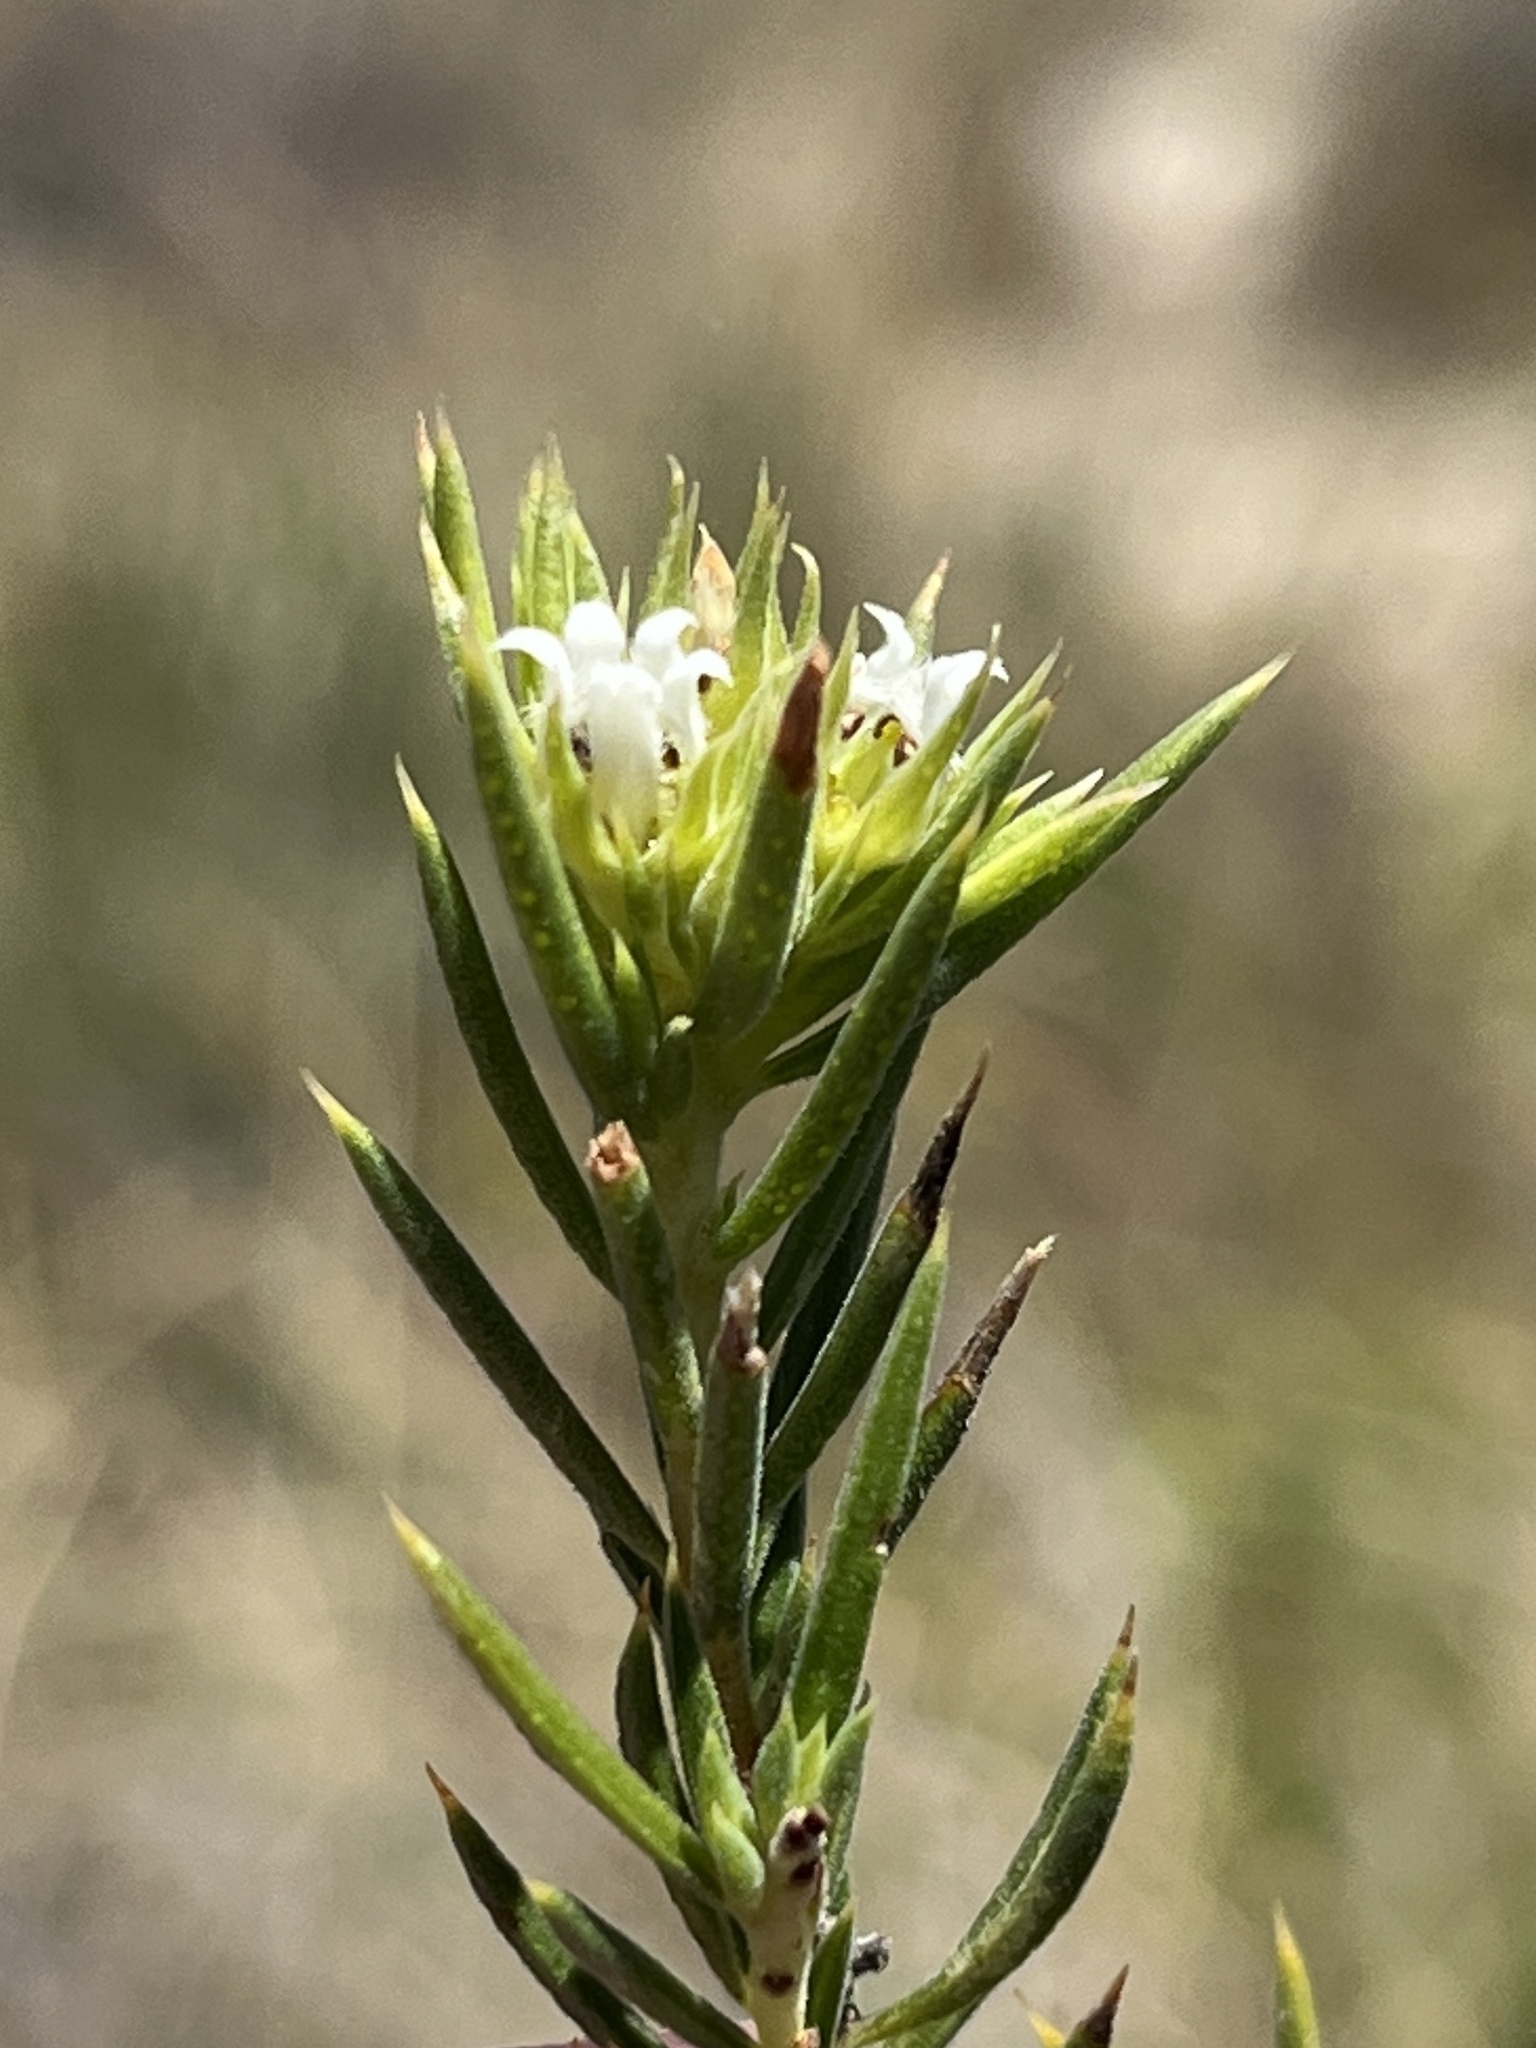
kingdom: Plantae
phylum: Tracheophyta
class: Magnoliopsida
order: Sapindales
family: Rutaceae
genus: Euchaetis
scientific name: Euchaetis longicornis
